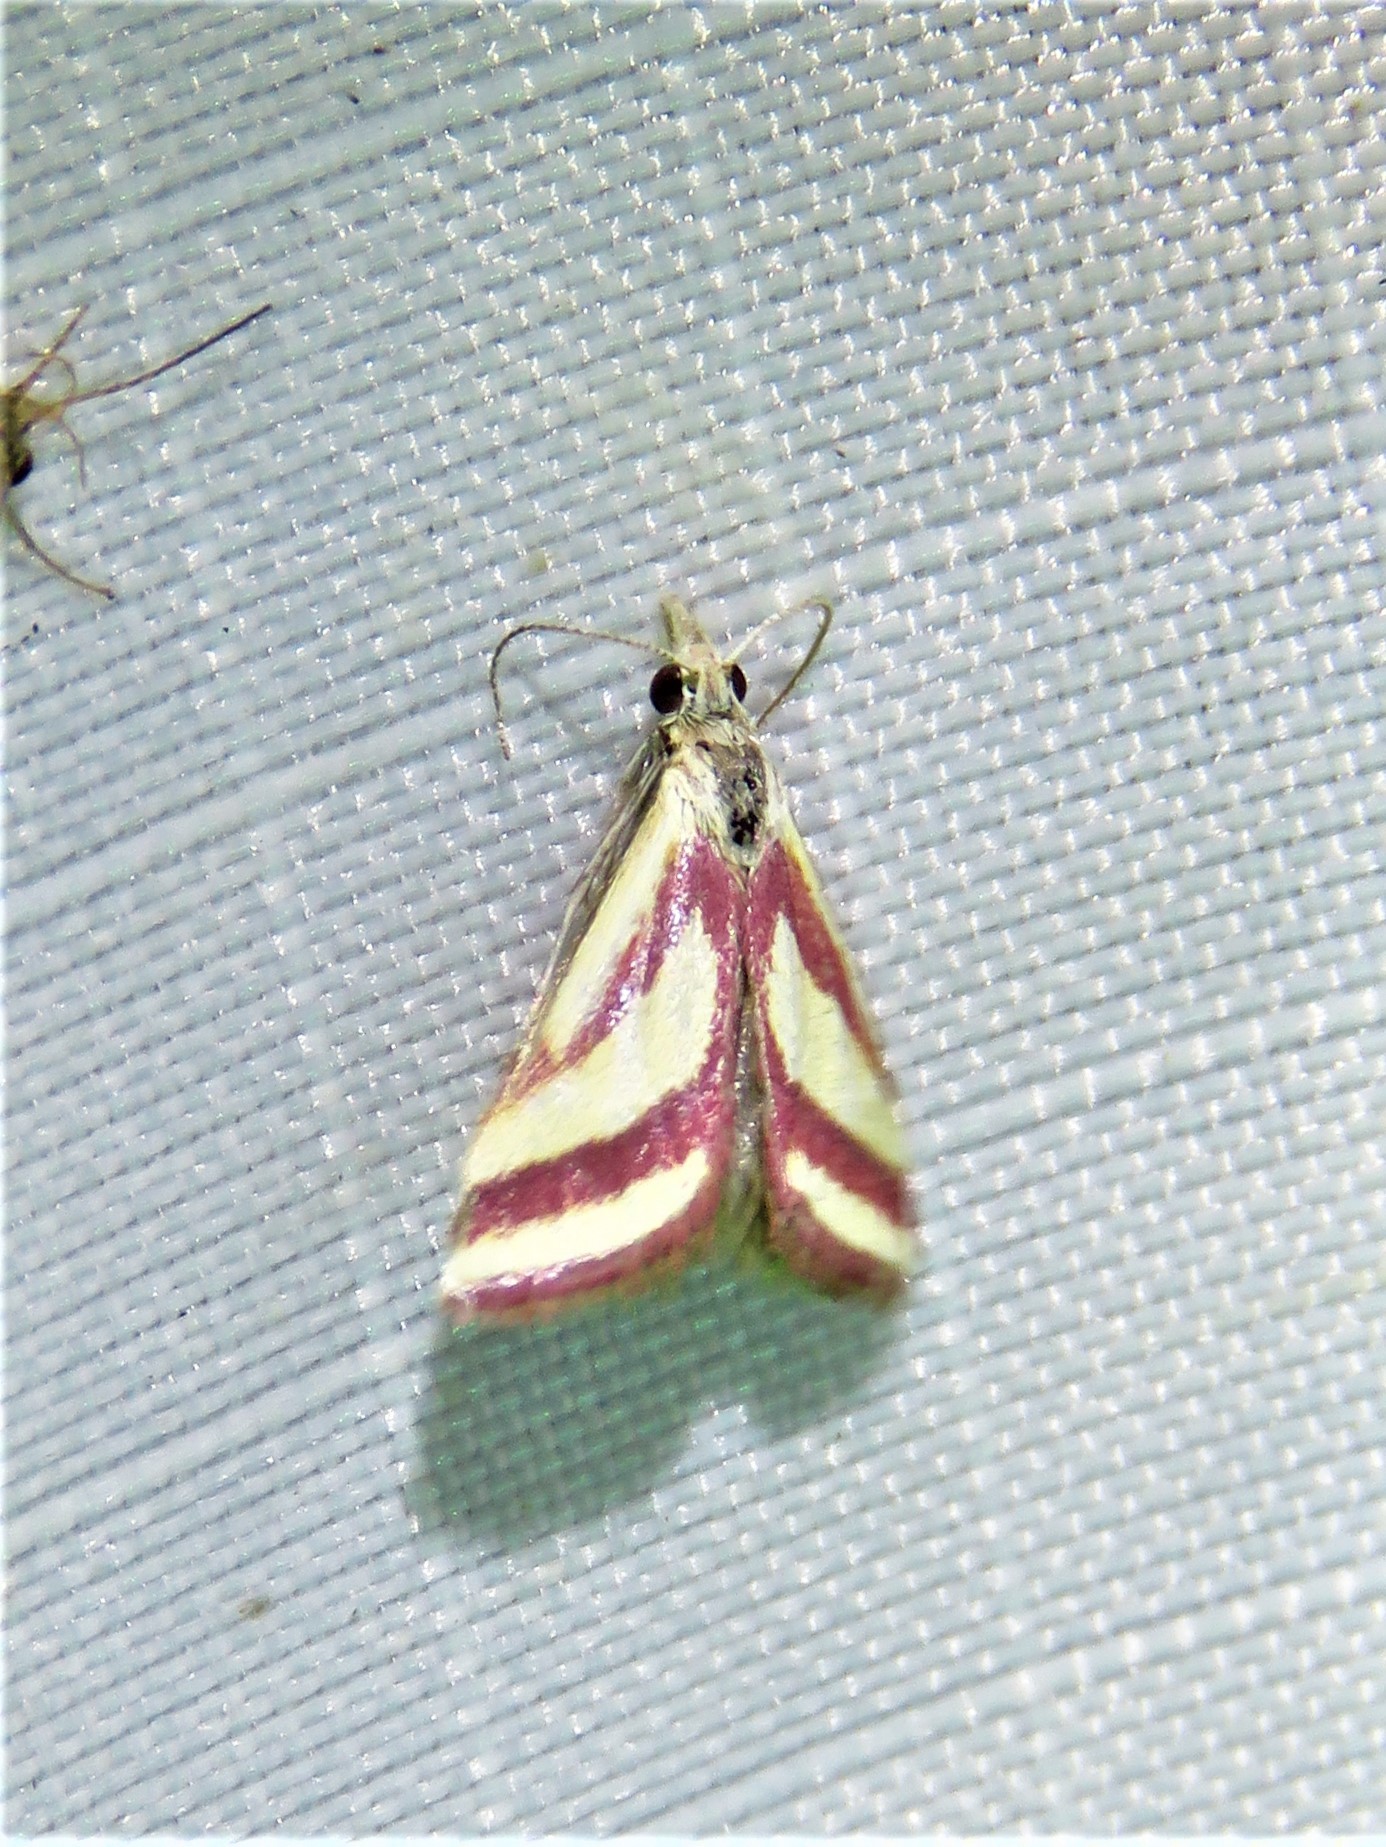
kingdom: Animalia
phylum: Arthropoda
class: Insecta
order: Lepidoptera
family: Crambidae
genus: Microtheoris
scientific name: Microtheoris vibicalis
